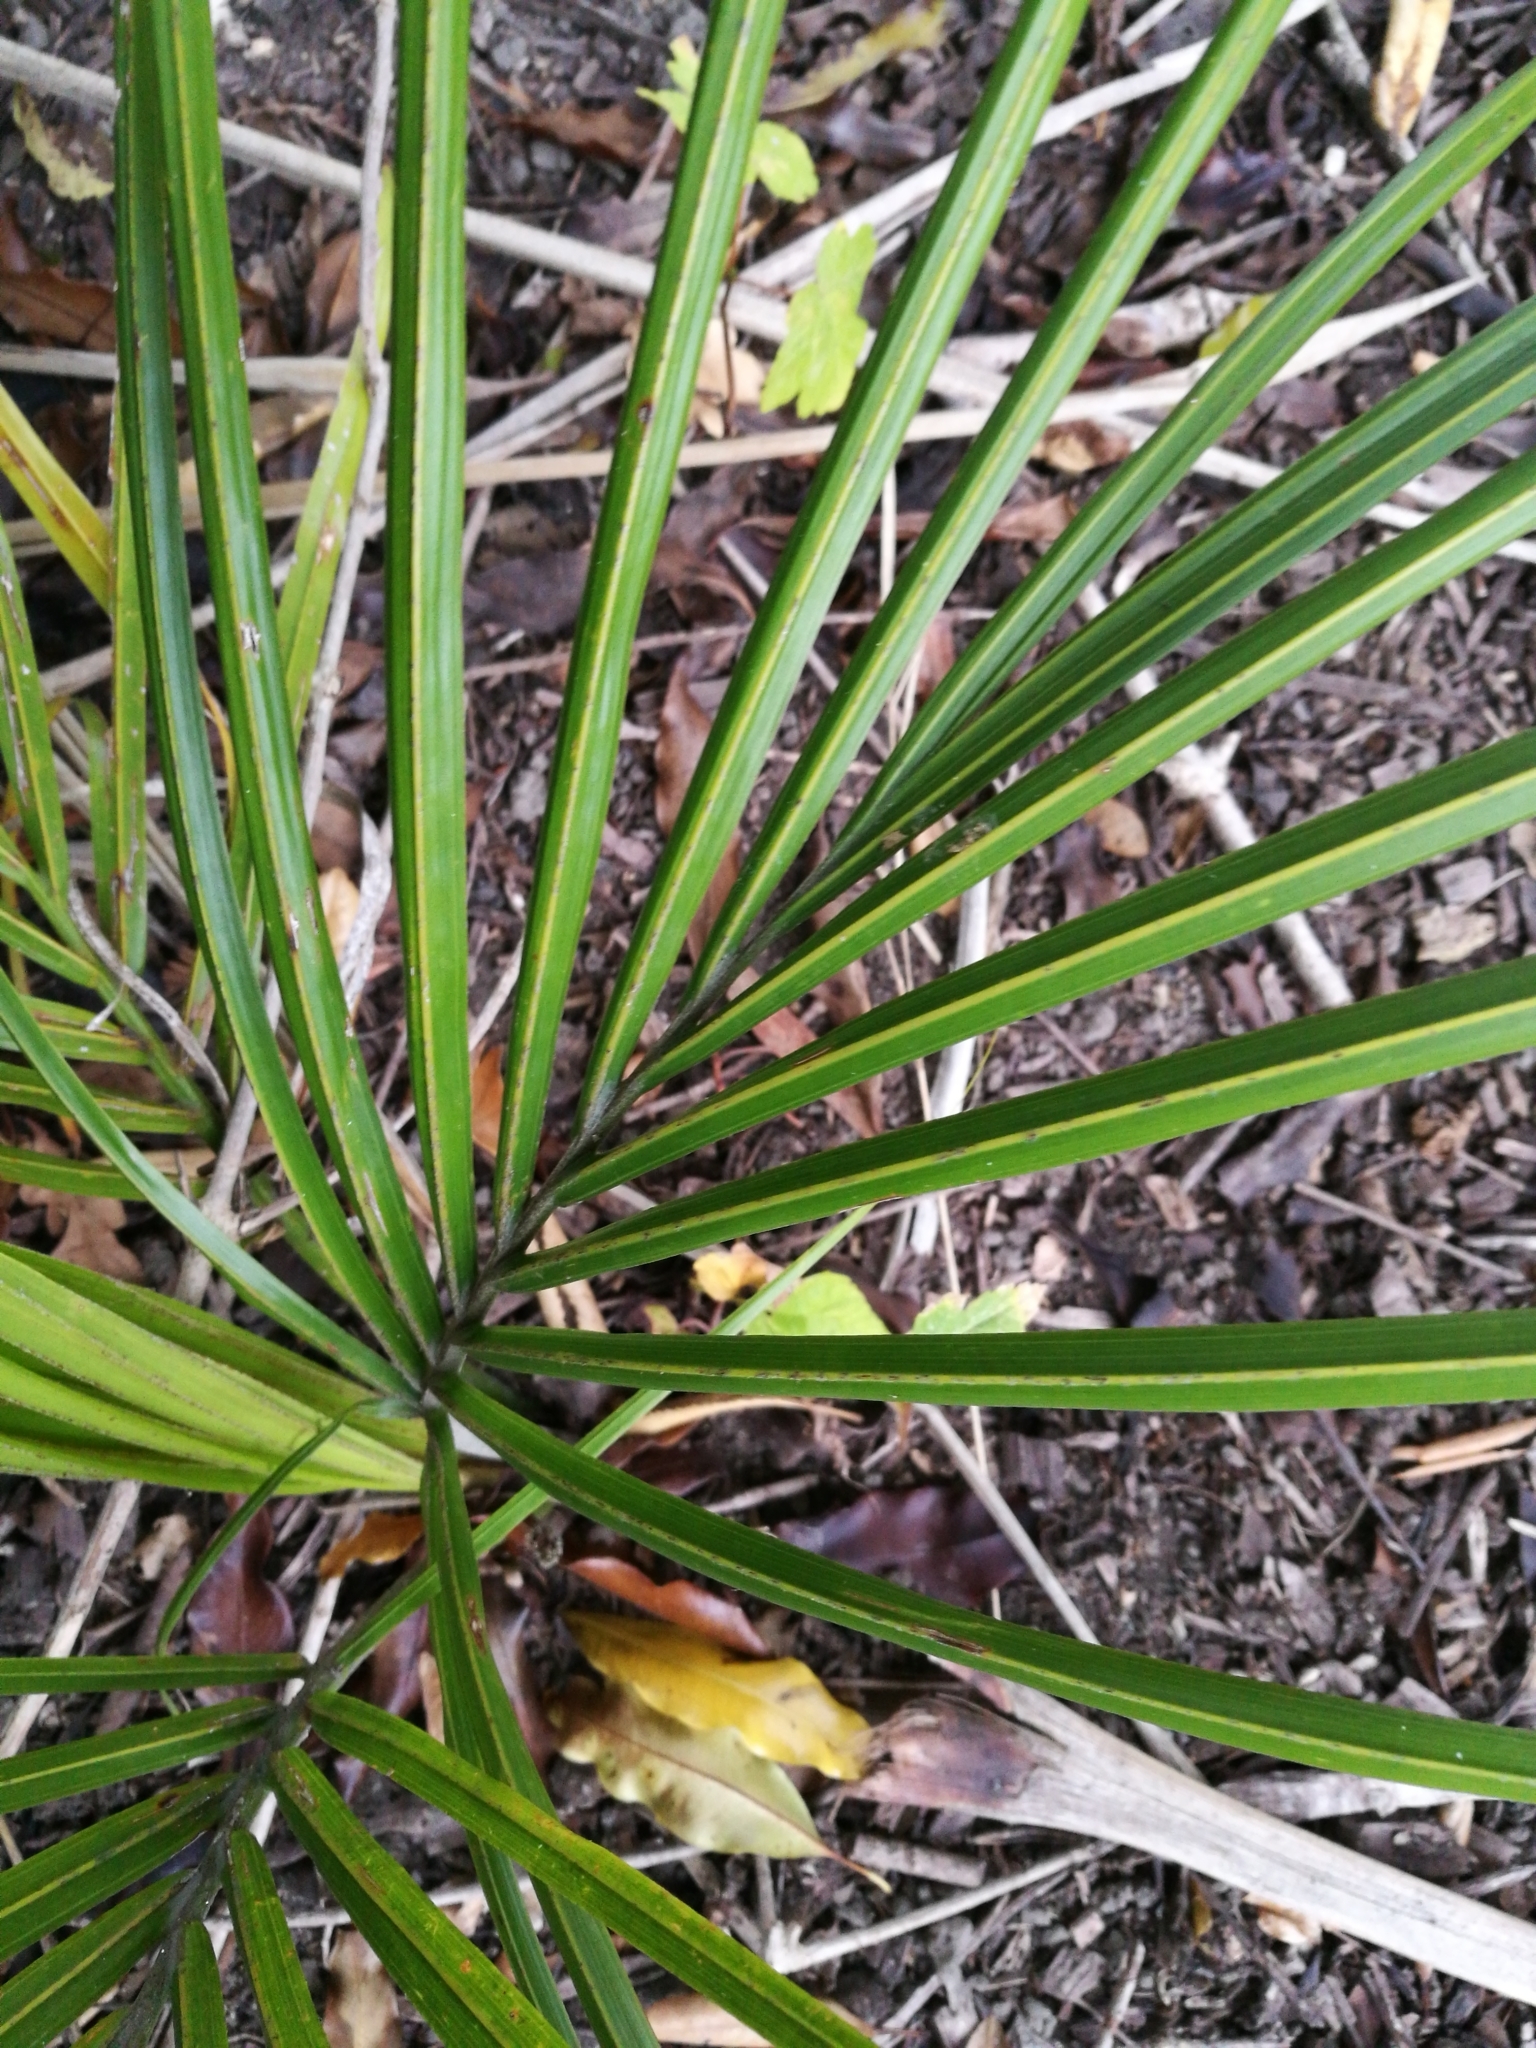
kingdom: Plantae
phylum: Tracheophyta
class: Liliopsida
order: Arecales
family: Arecaceae
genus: Rhopalostylis
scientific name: Rhopalostylis sapida
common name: Feather-duster palm
